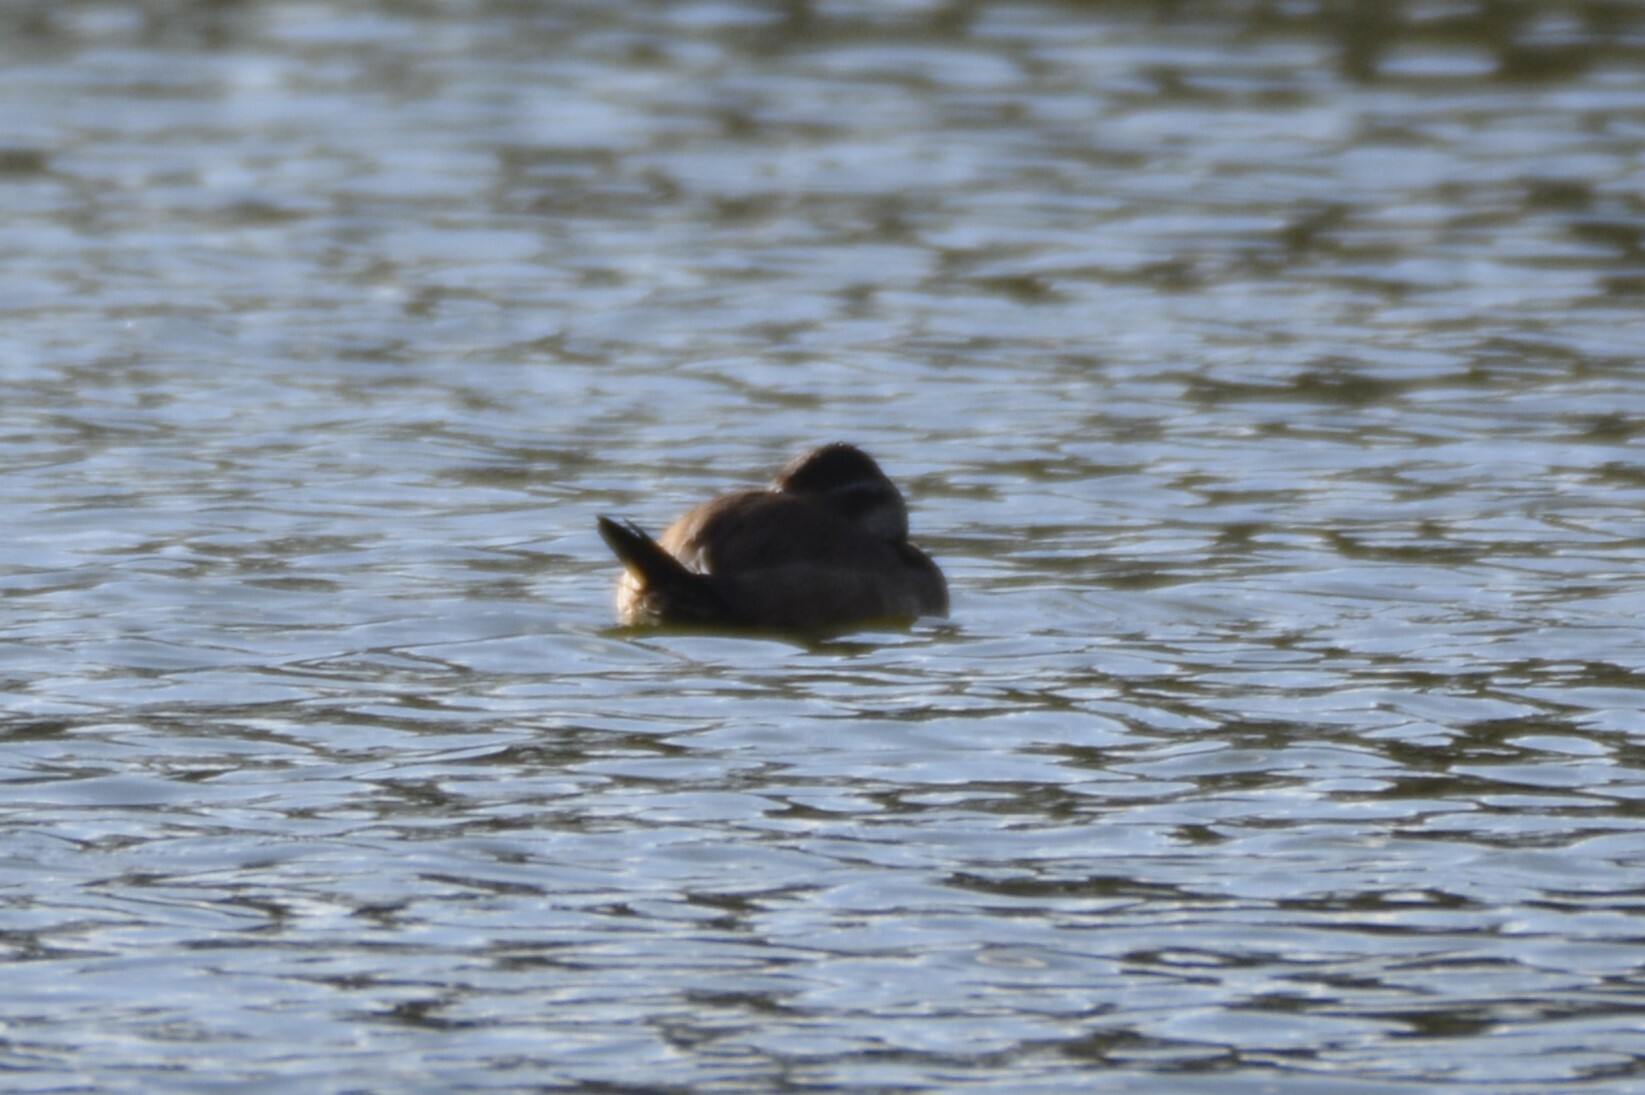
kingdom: Animalia
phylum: Chordata
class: Aves
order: Anseriformes
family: Anatidae
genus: Oxyura
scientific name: Oxyura leucocephala
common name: White-headed duck
